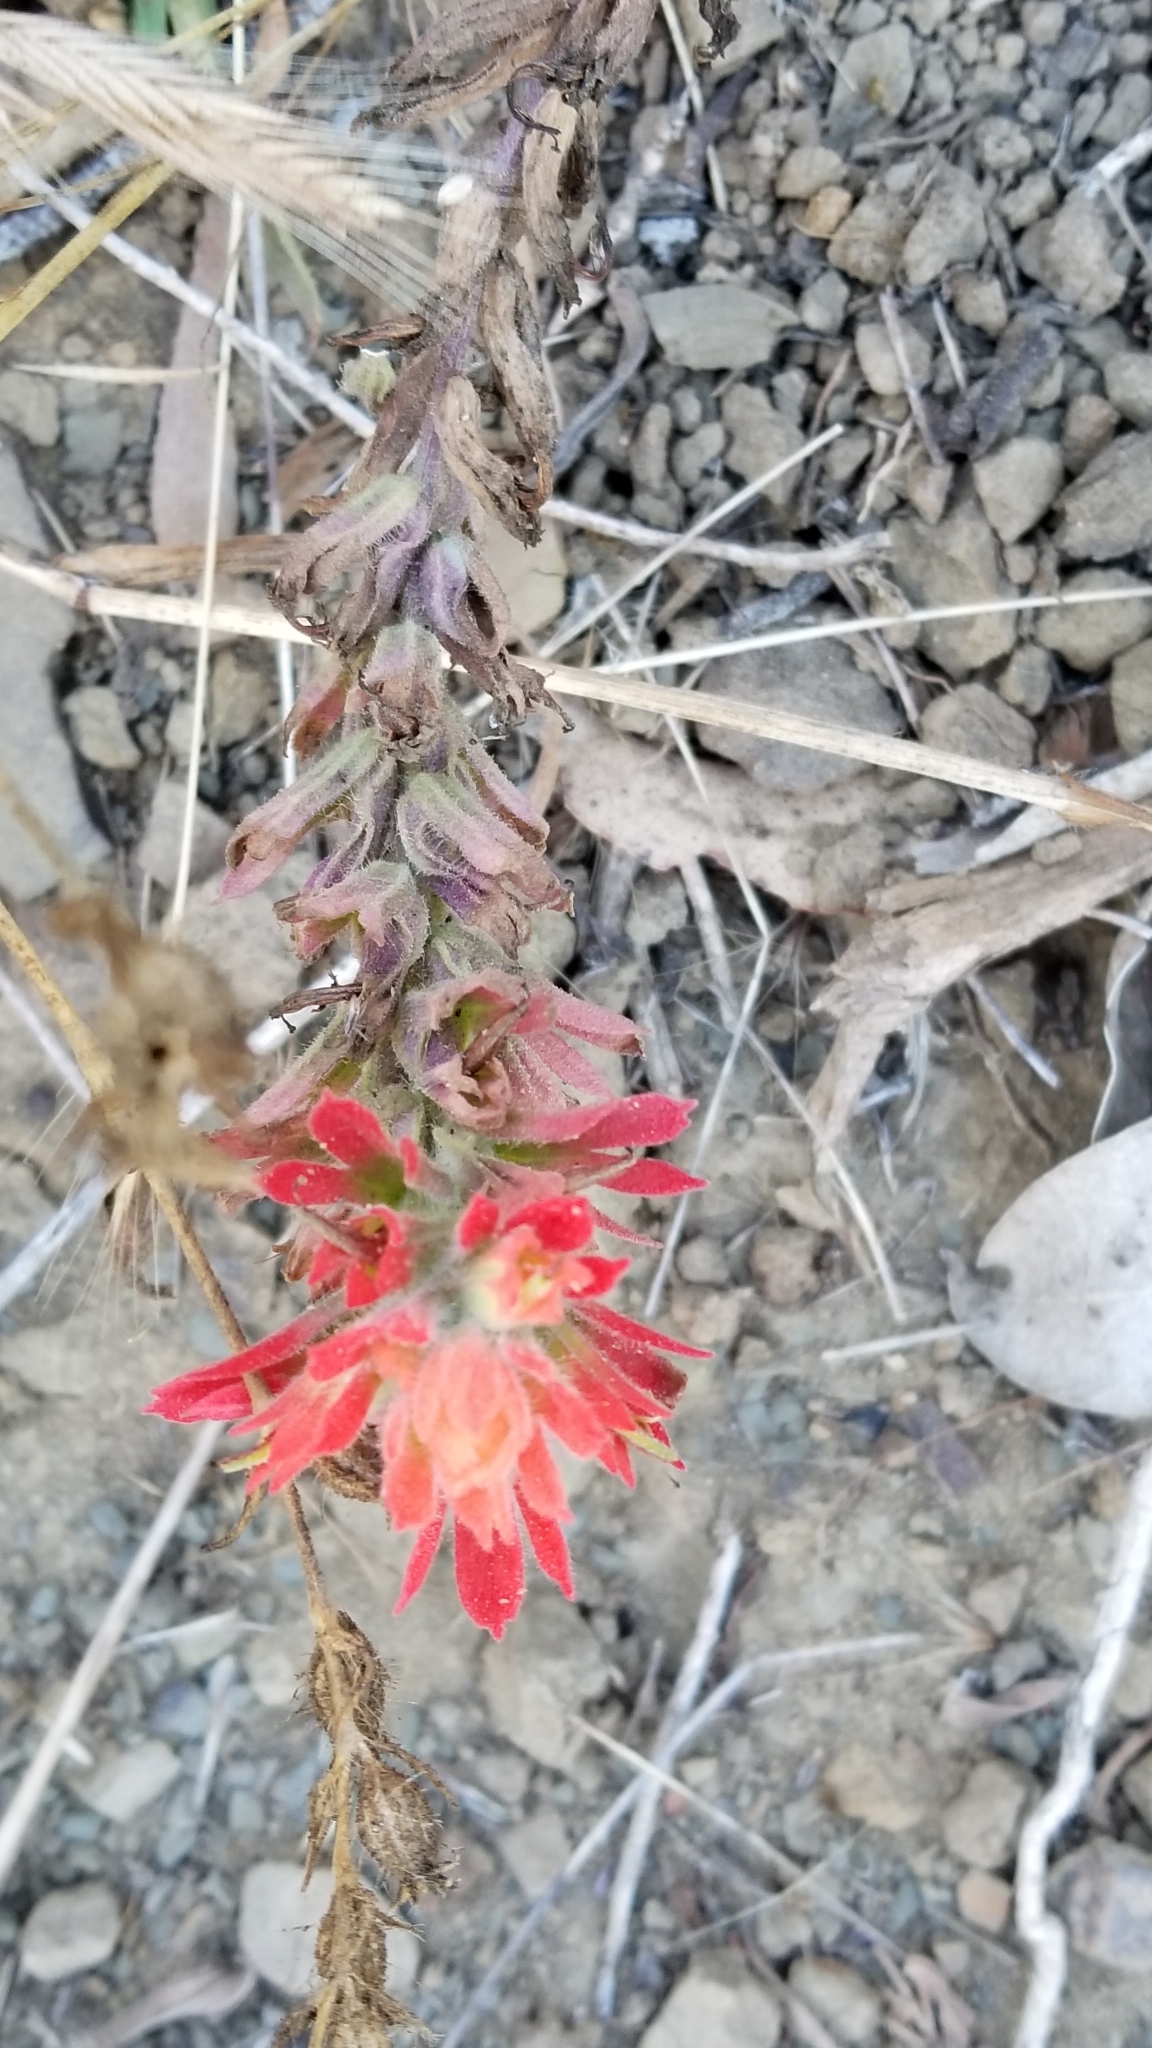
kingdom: Plantae
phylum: Tracheophyta
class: Magnoliopsida
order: Lamiales
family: Orobanchaceae
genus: Castilleja
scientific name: Castilleja affinis
